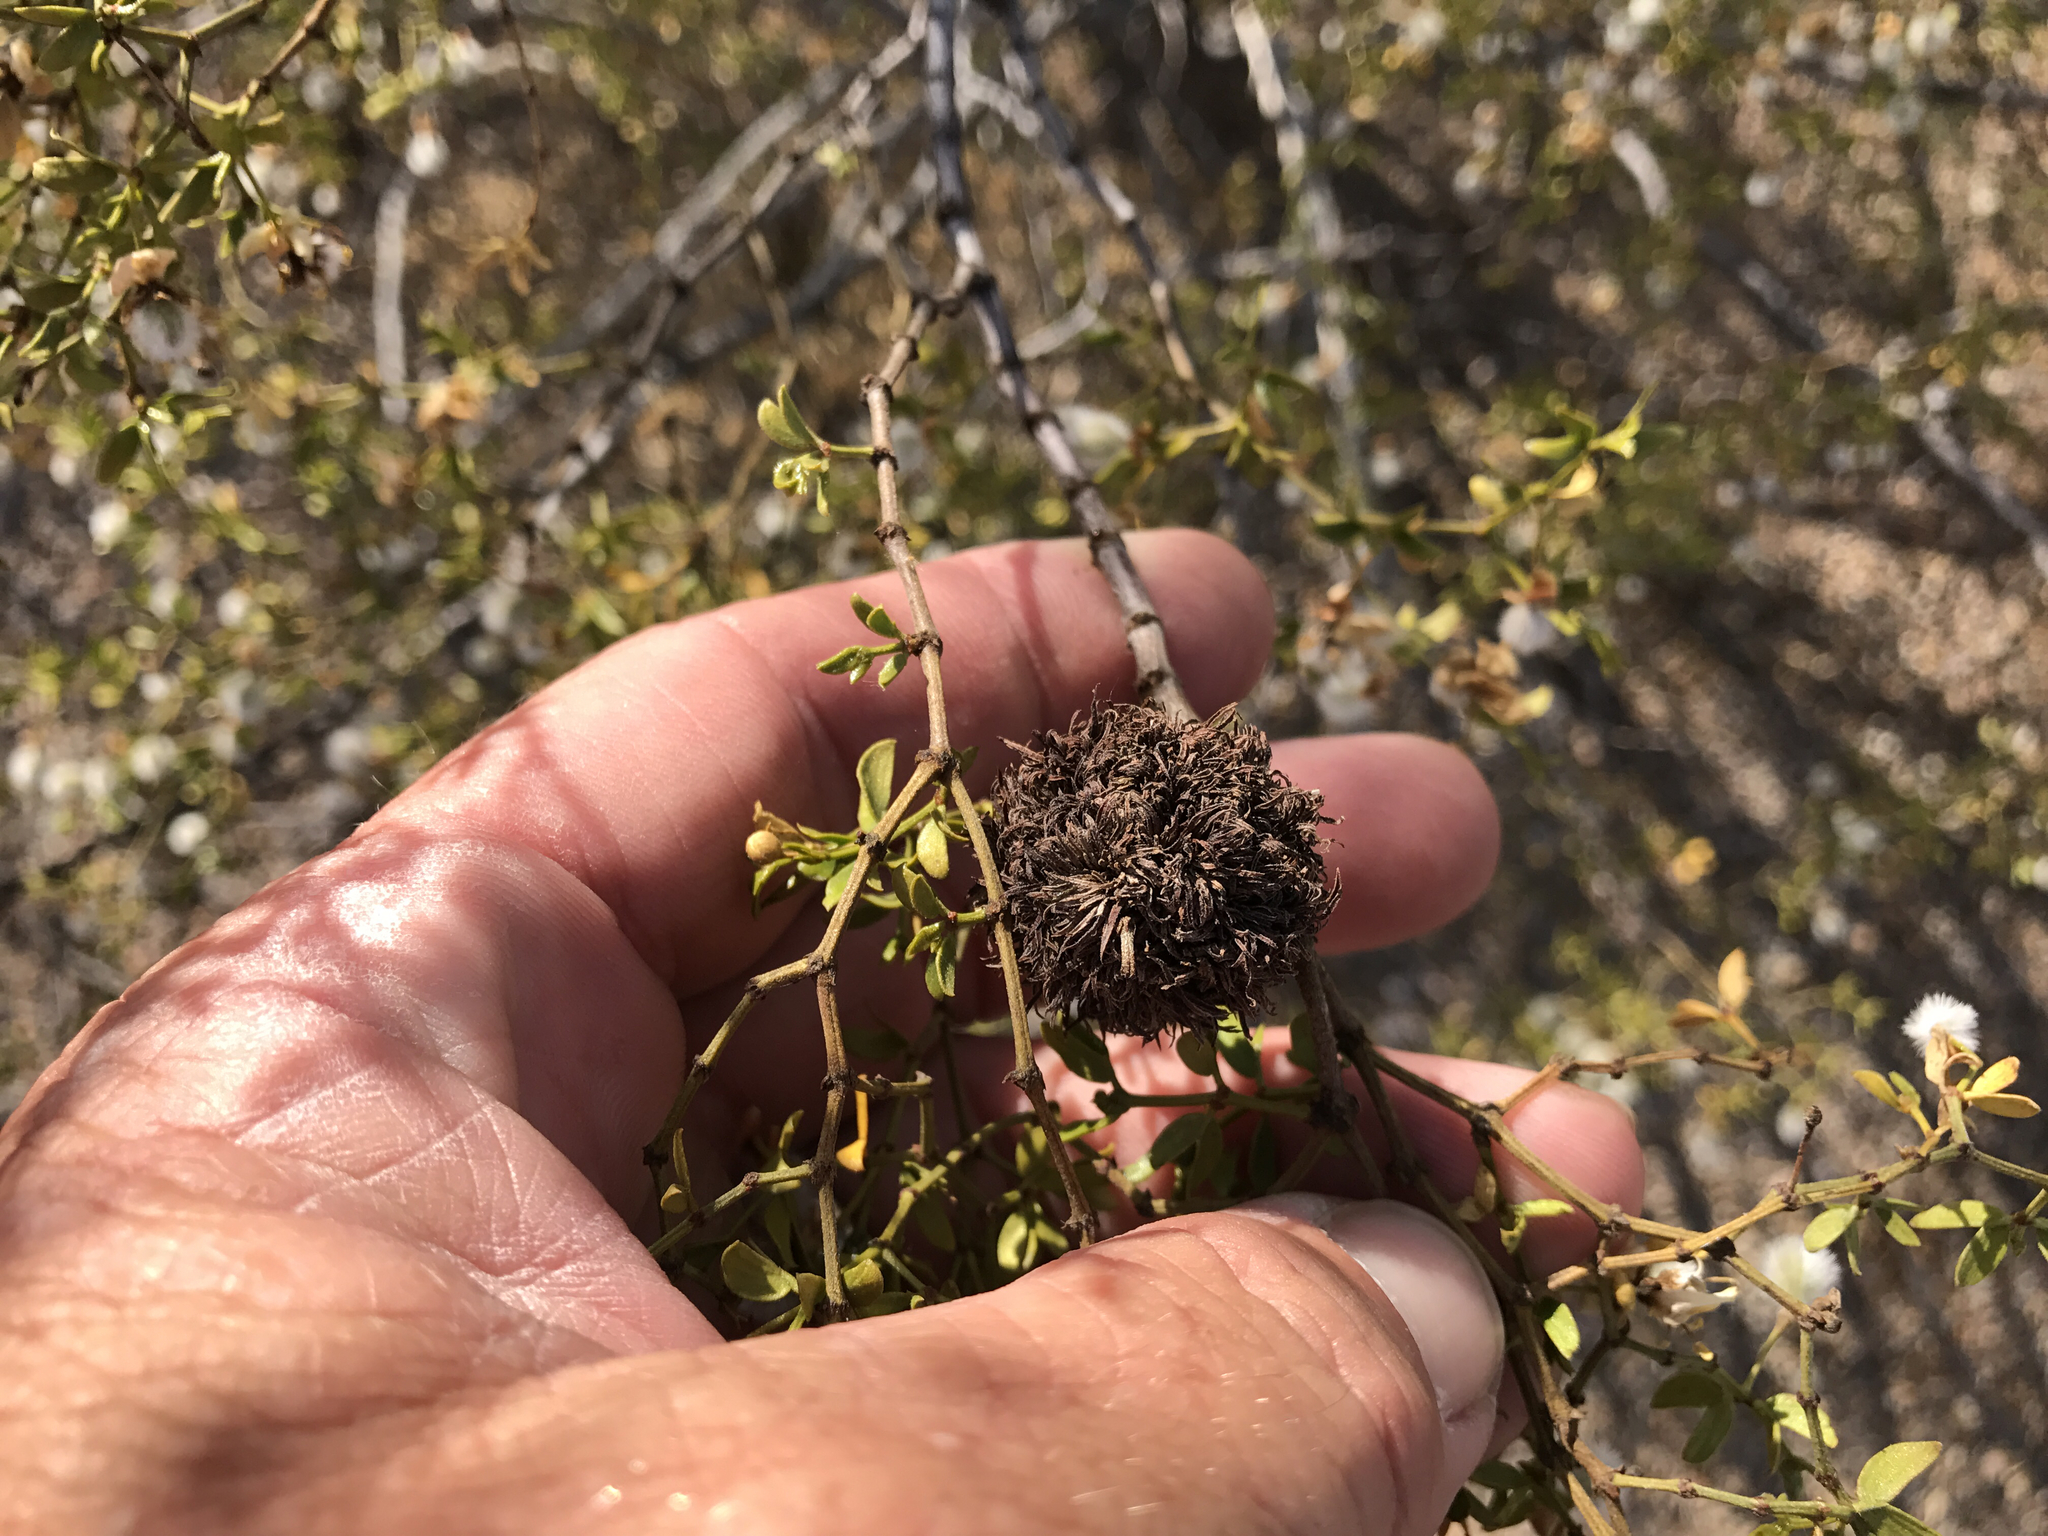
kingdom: Animalia
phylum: Arthropoda
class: Insecta
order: Diptera
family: Cecidomyiidae
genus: Asphondylia
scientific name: Asphondylia auripila
